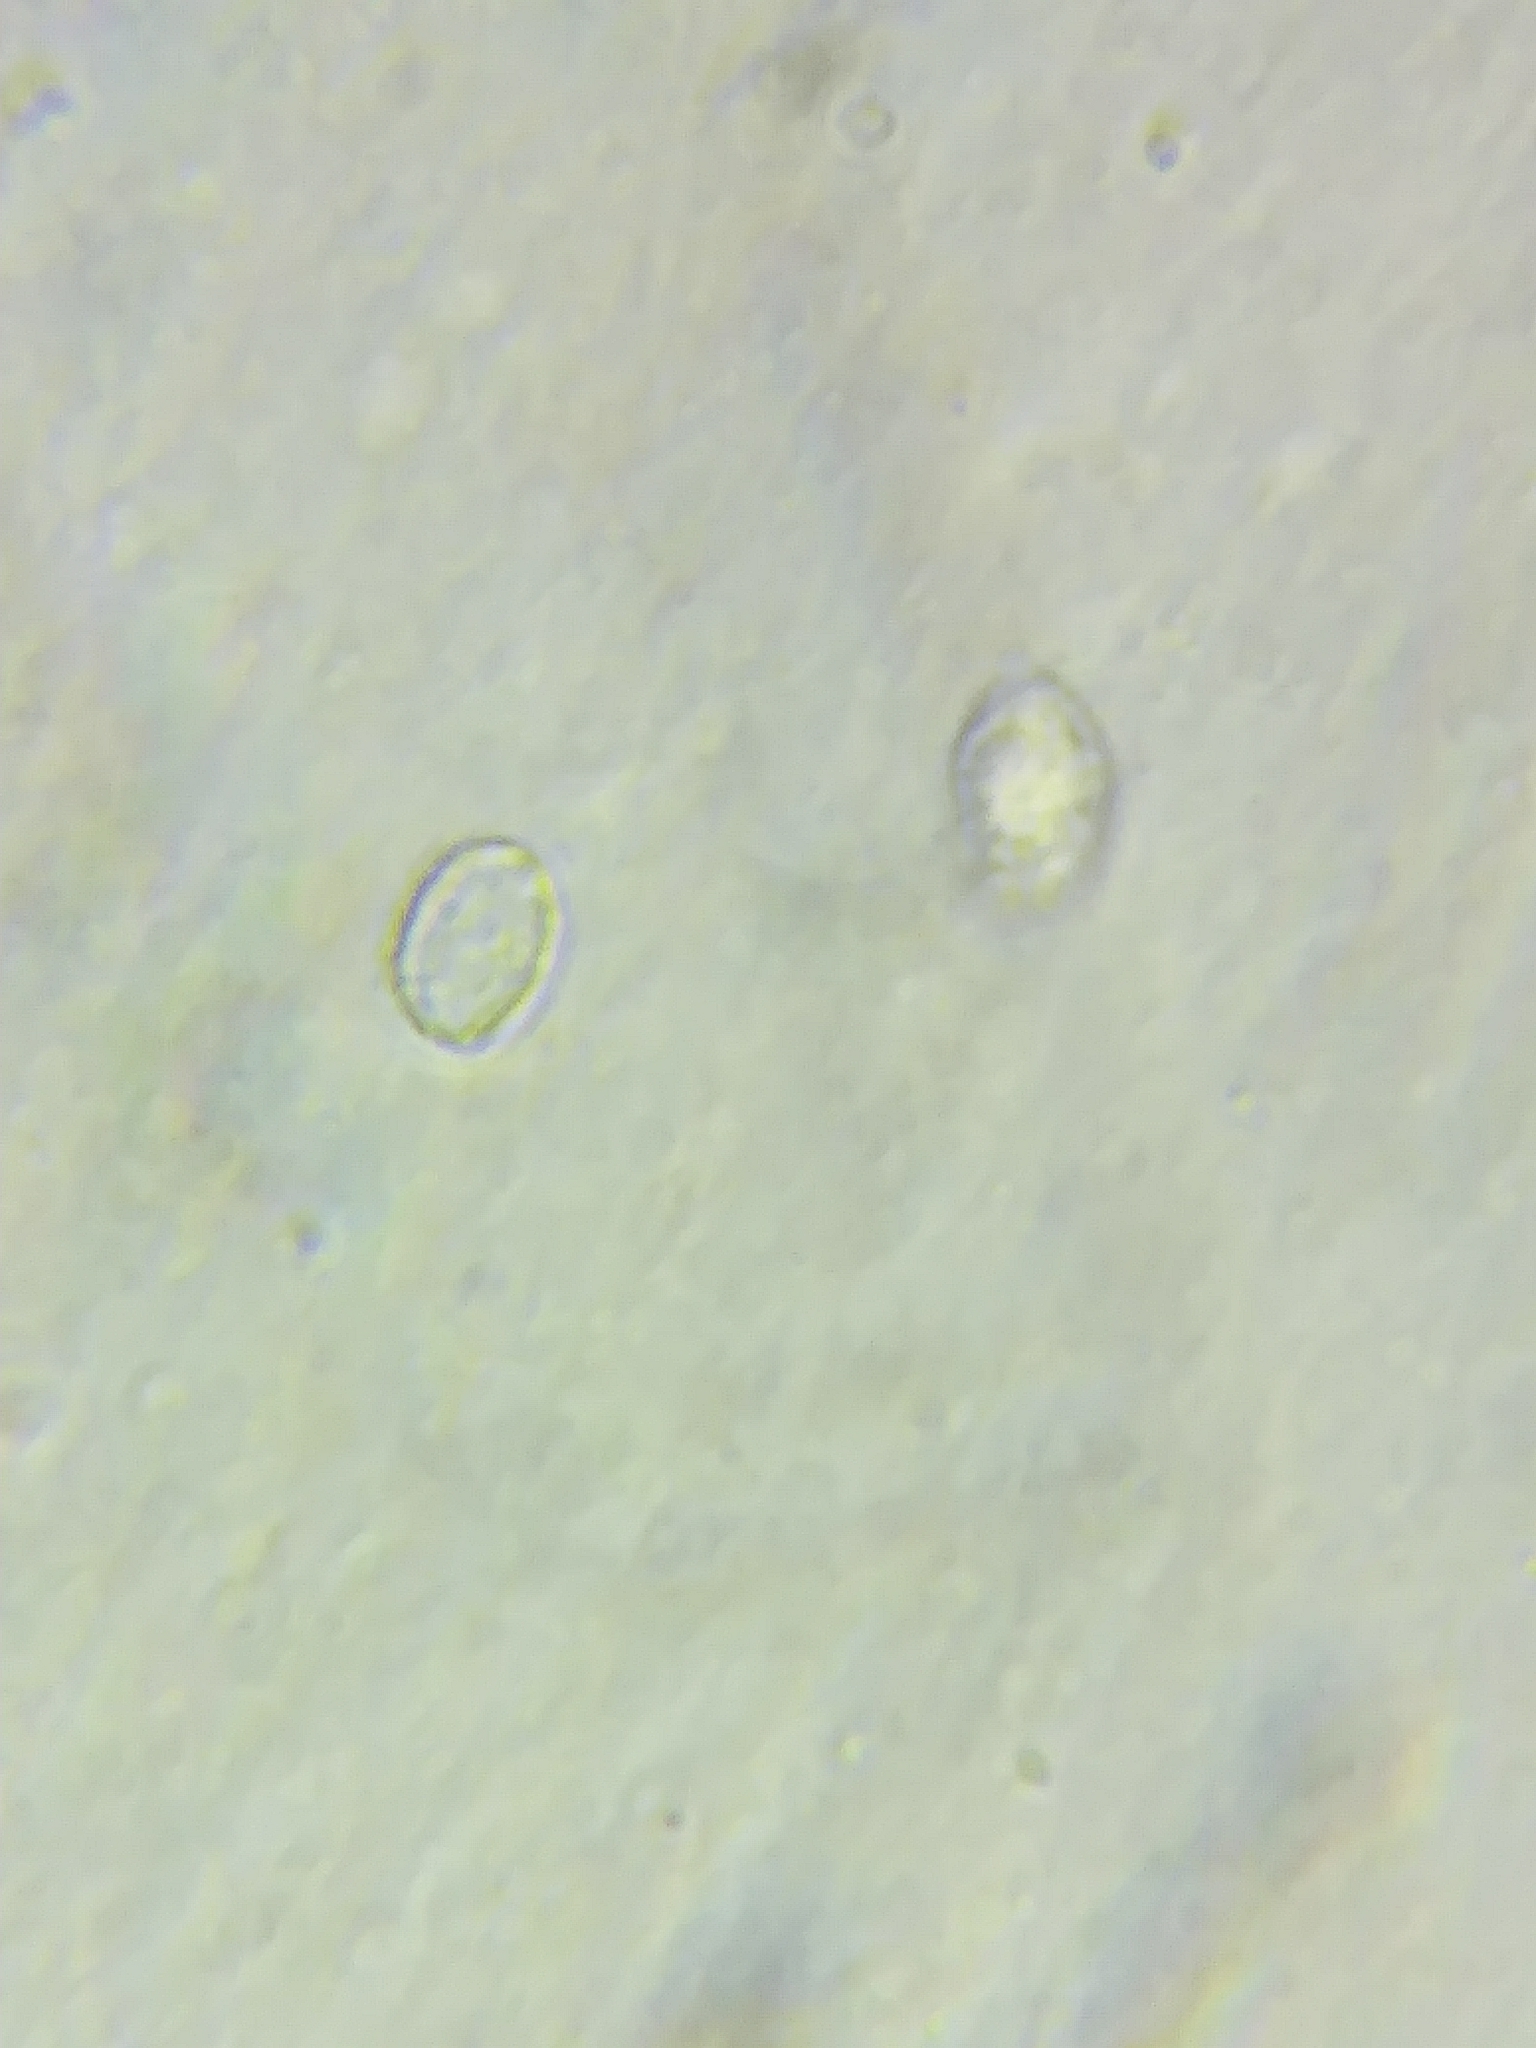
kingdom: Fungi
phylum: Basidiomycota
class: Agaricomycetes
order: Agaricales
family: Tricholomataceae
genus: Melanoleuca
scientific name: Melanoleuca griseobrunnea
